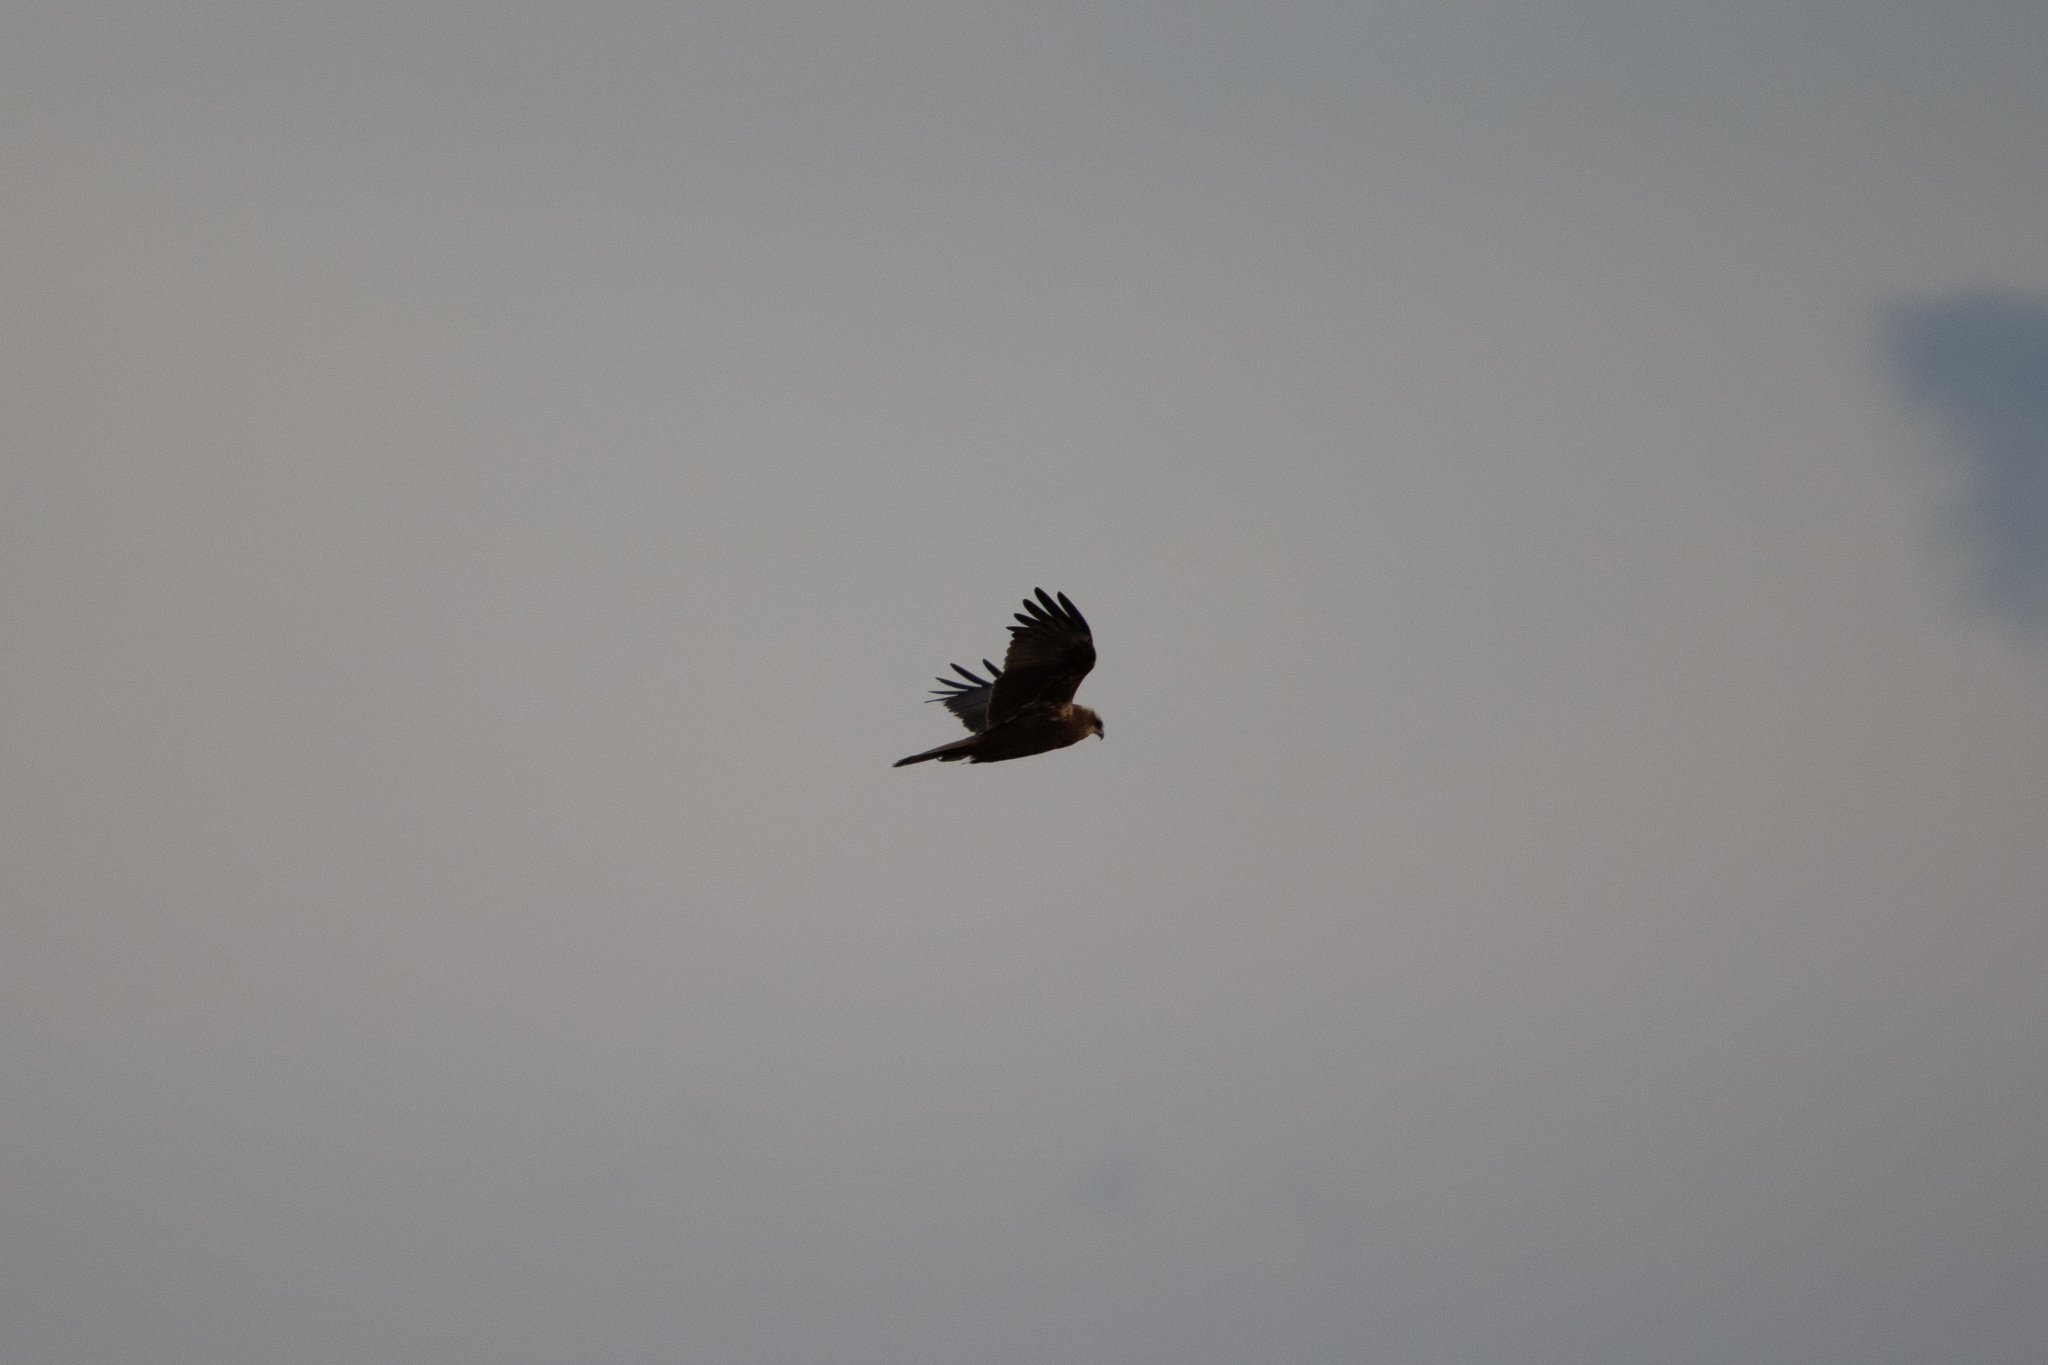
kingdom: Animalia
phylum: Chordata
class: Aves
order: Accipitriformes
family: Accipitridae
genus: Circus
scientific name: Circus aeruginosus
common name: Western marsh harrier
